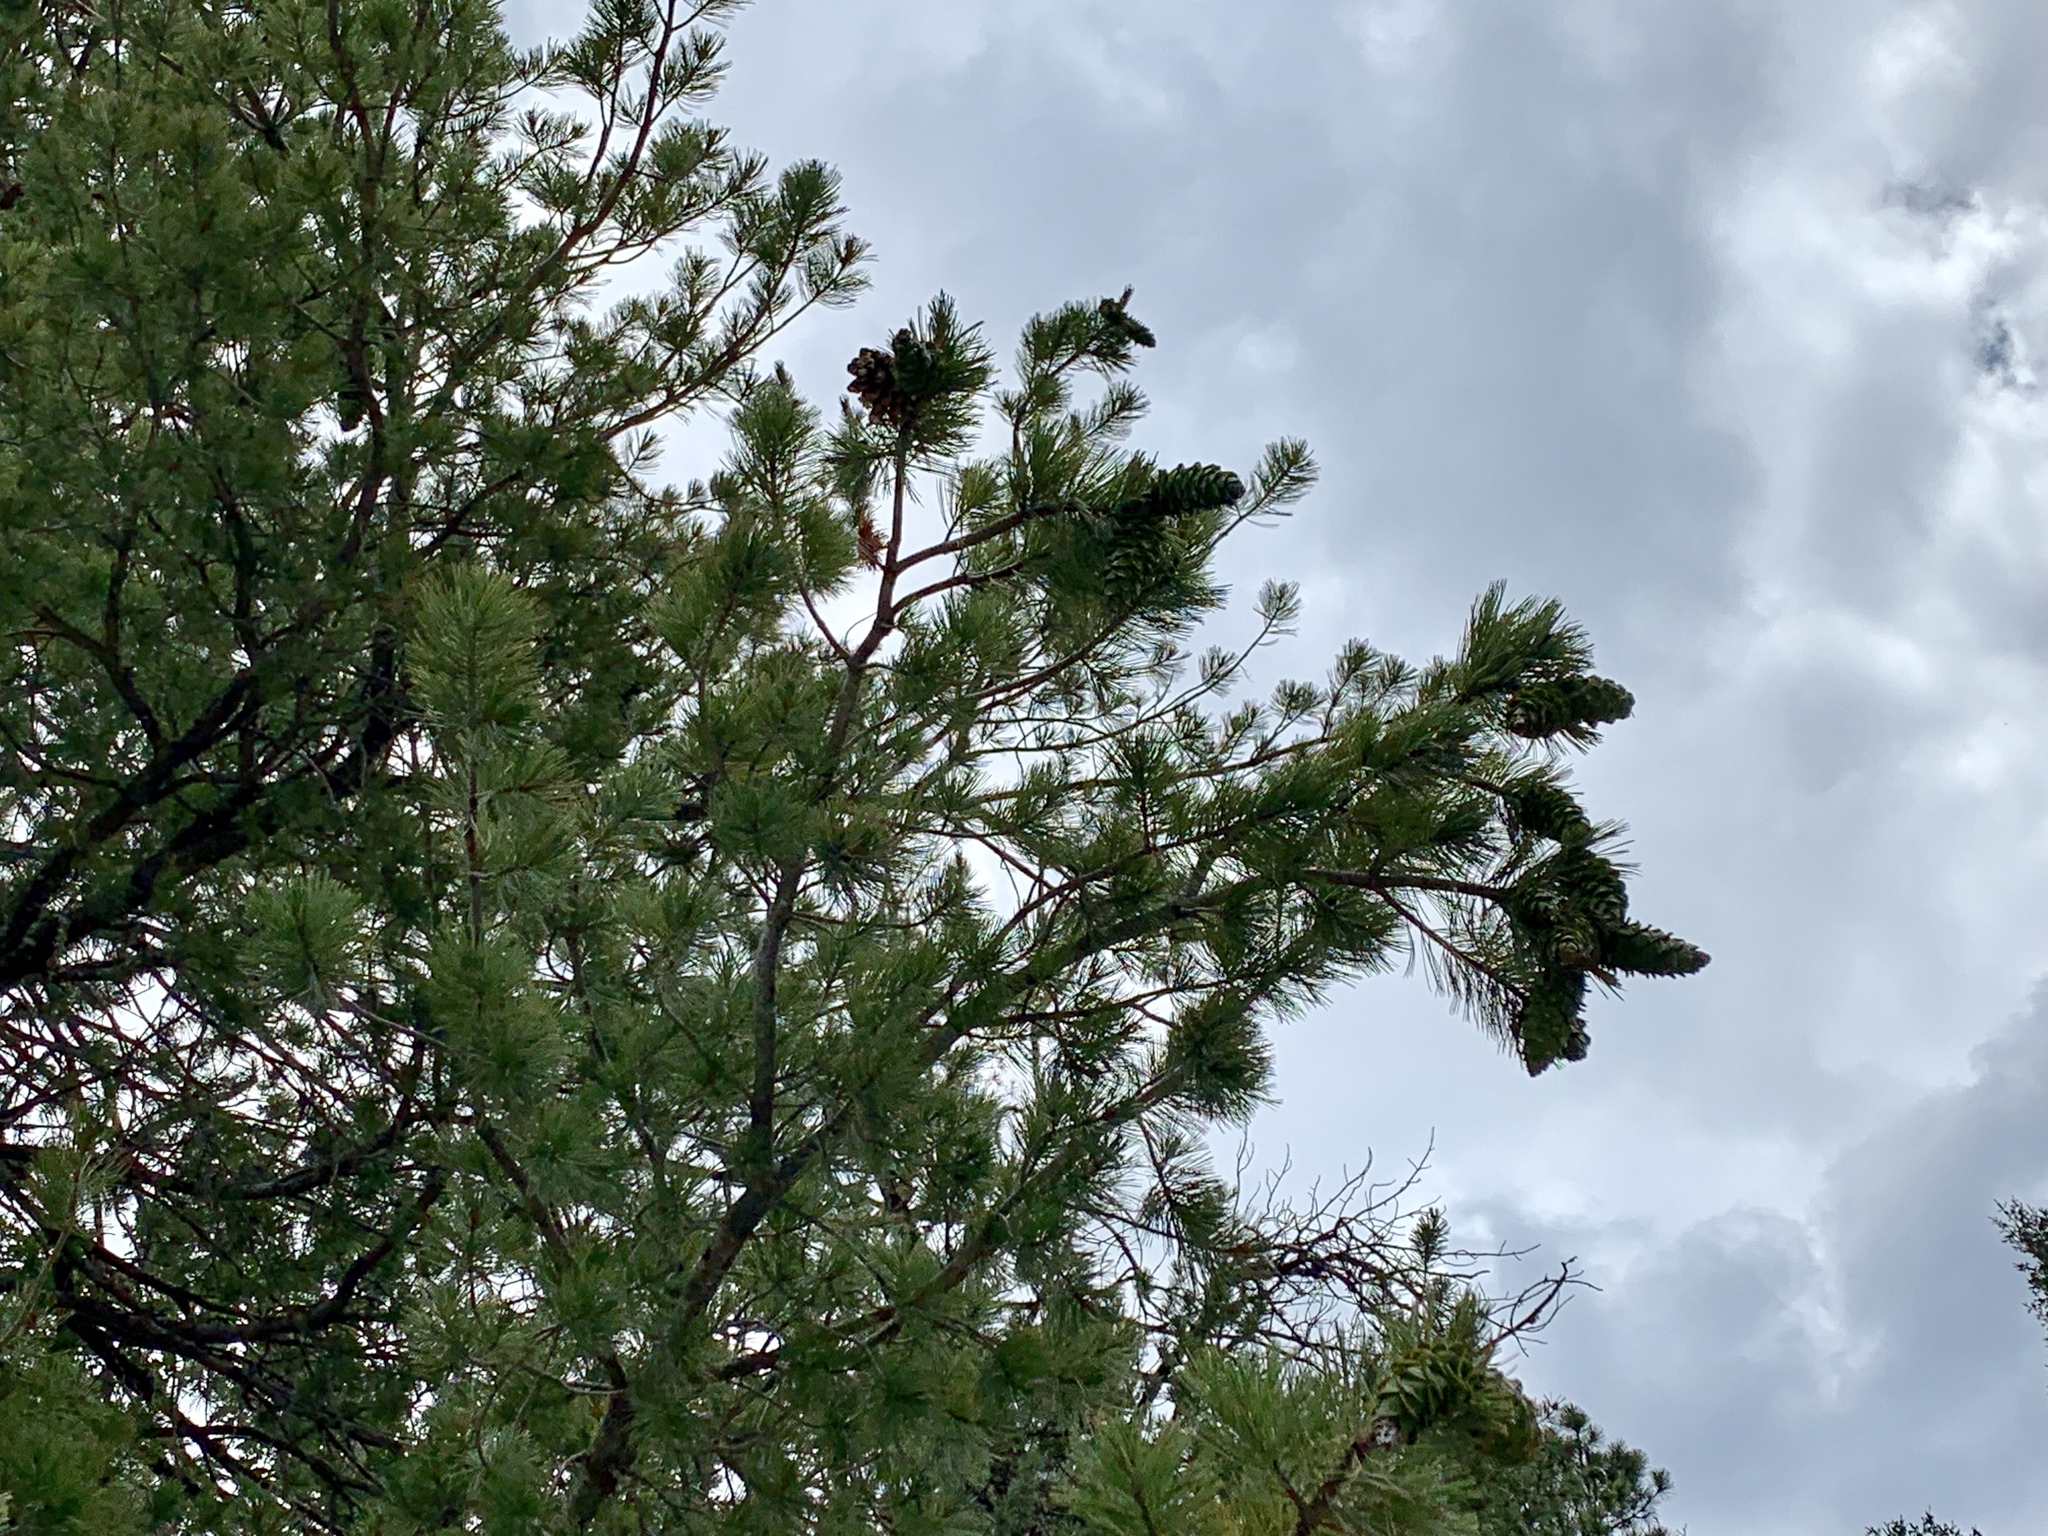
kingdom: Plantae
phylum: Tracheophyta
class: Pinopsida
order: Pinales
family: Pinaceae
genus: Pinus
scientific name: Pinus strobiformis
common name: Southwestern white pine
